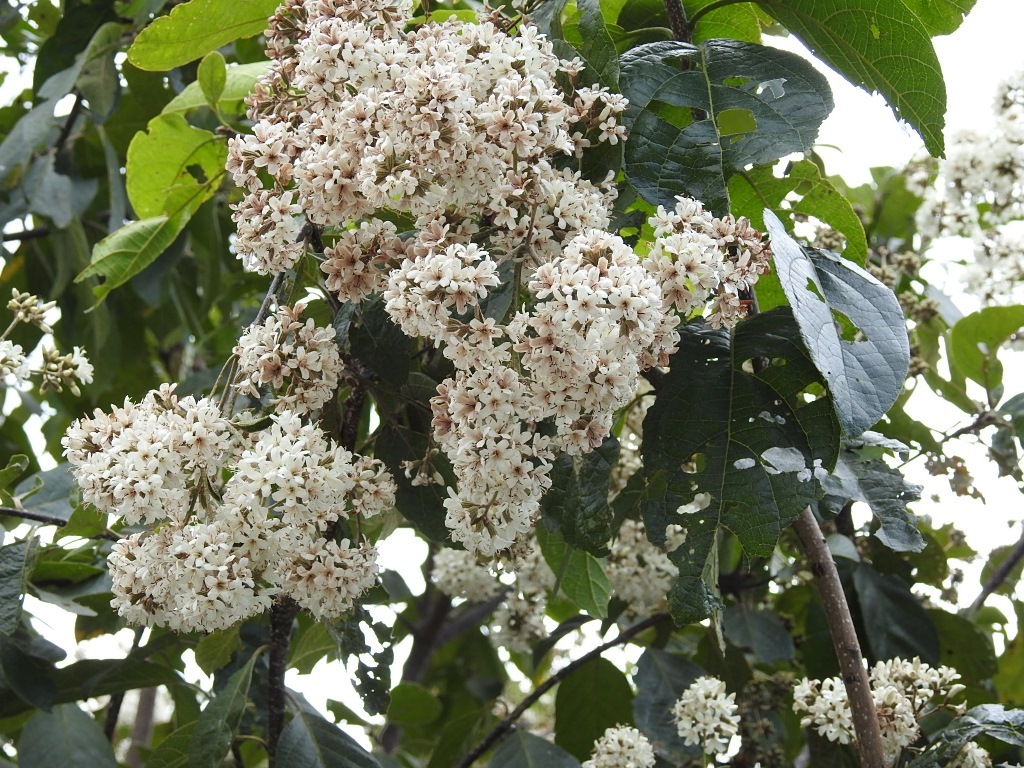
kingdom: Plantae
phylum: Tracheophyta
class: Magnoliopsida
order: Boraginales
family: Cordiaceae
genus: Cordia
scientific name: Cordia alliodora
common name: Spanish elm
